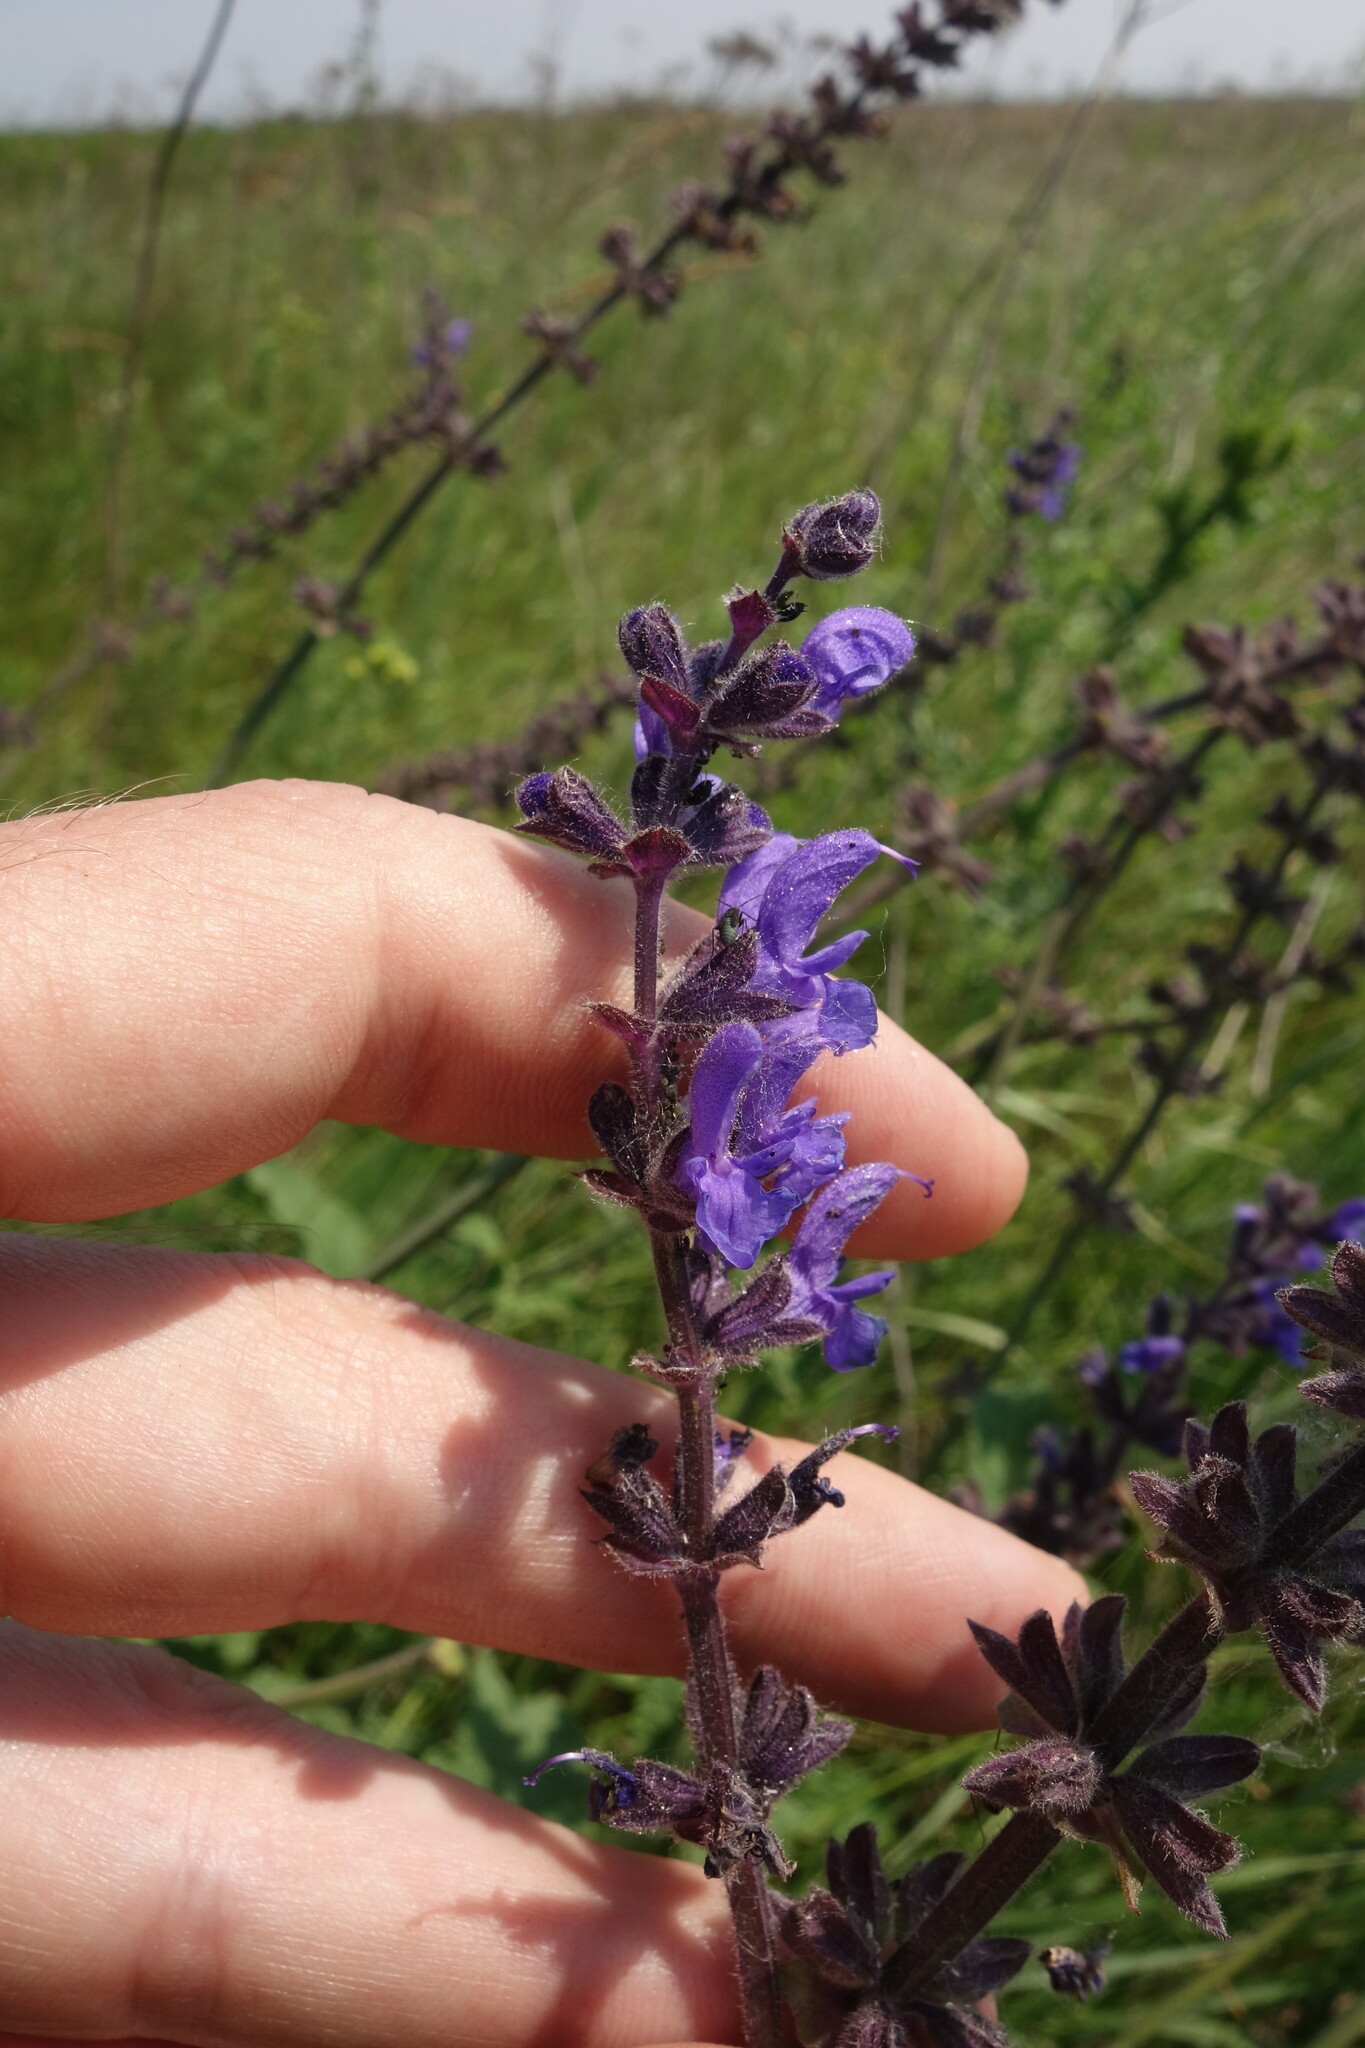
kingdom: Plantae
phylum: Tracheophyta
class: Magnoliopsida
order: Lamiales
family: Lamiaceae
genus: Salvia
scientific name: Salvia dumetorum
